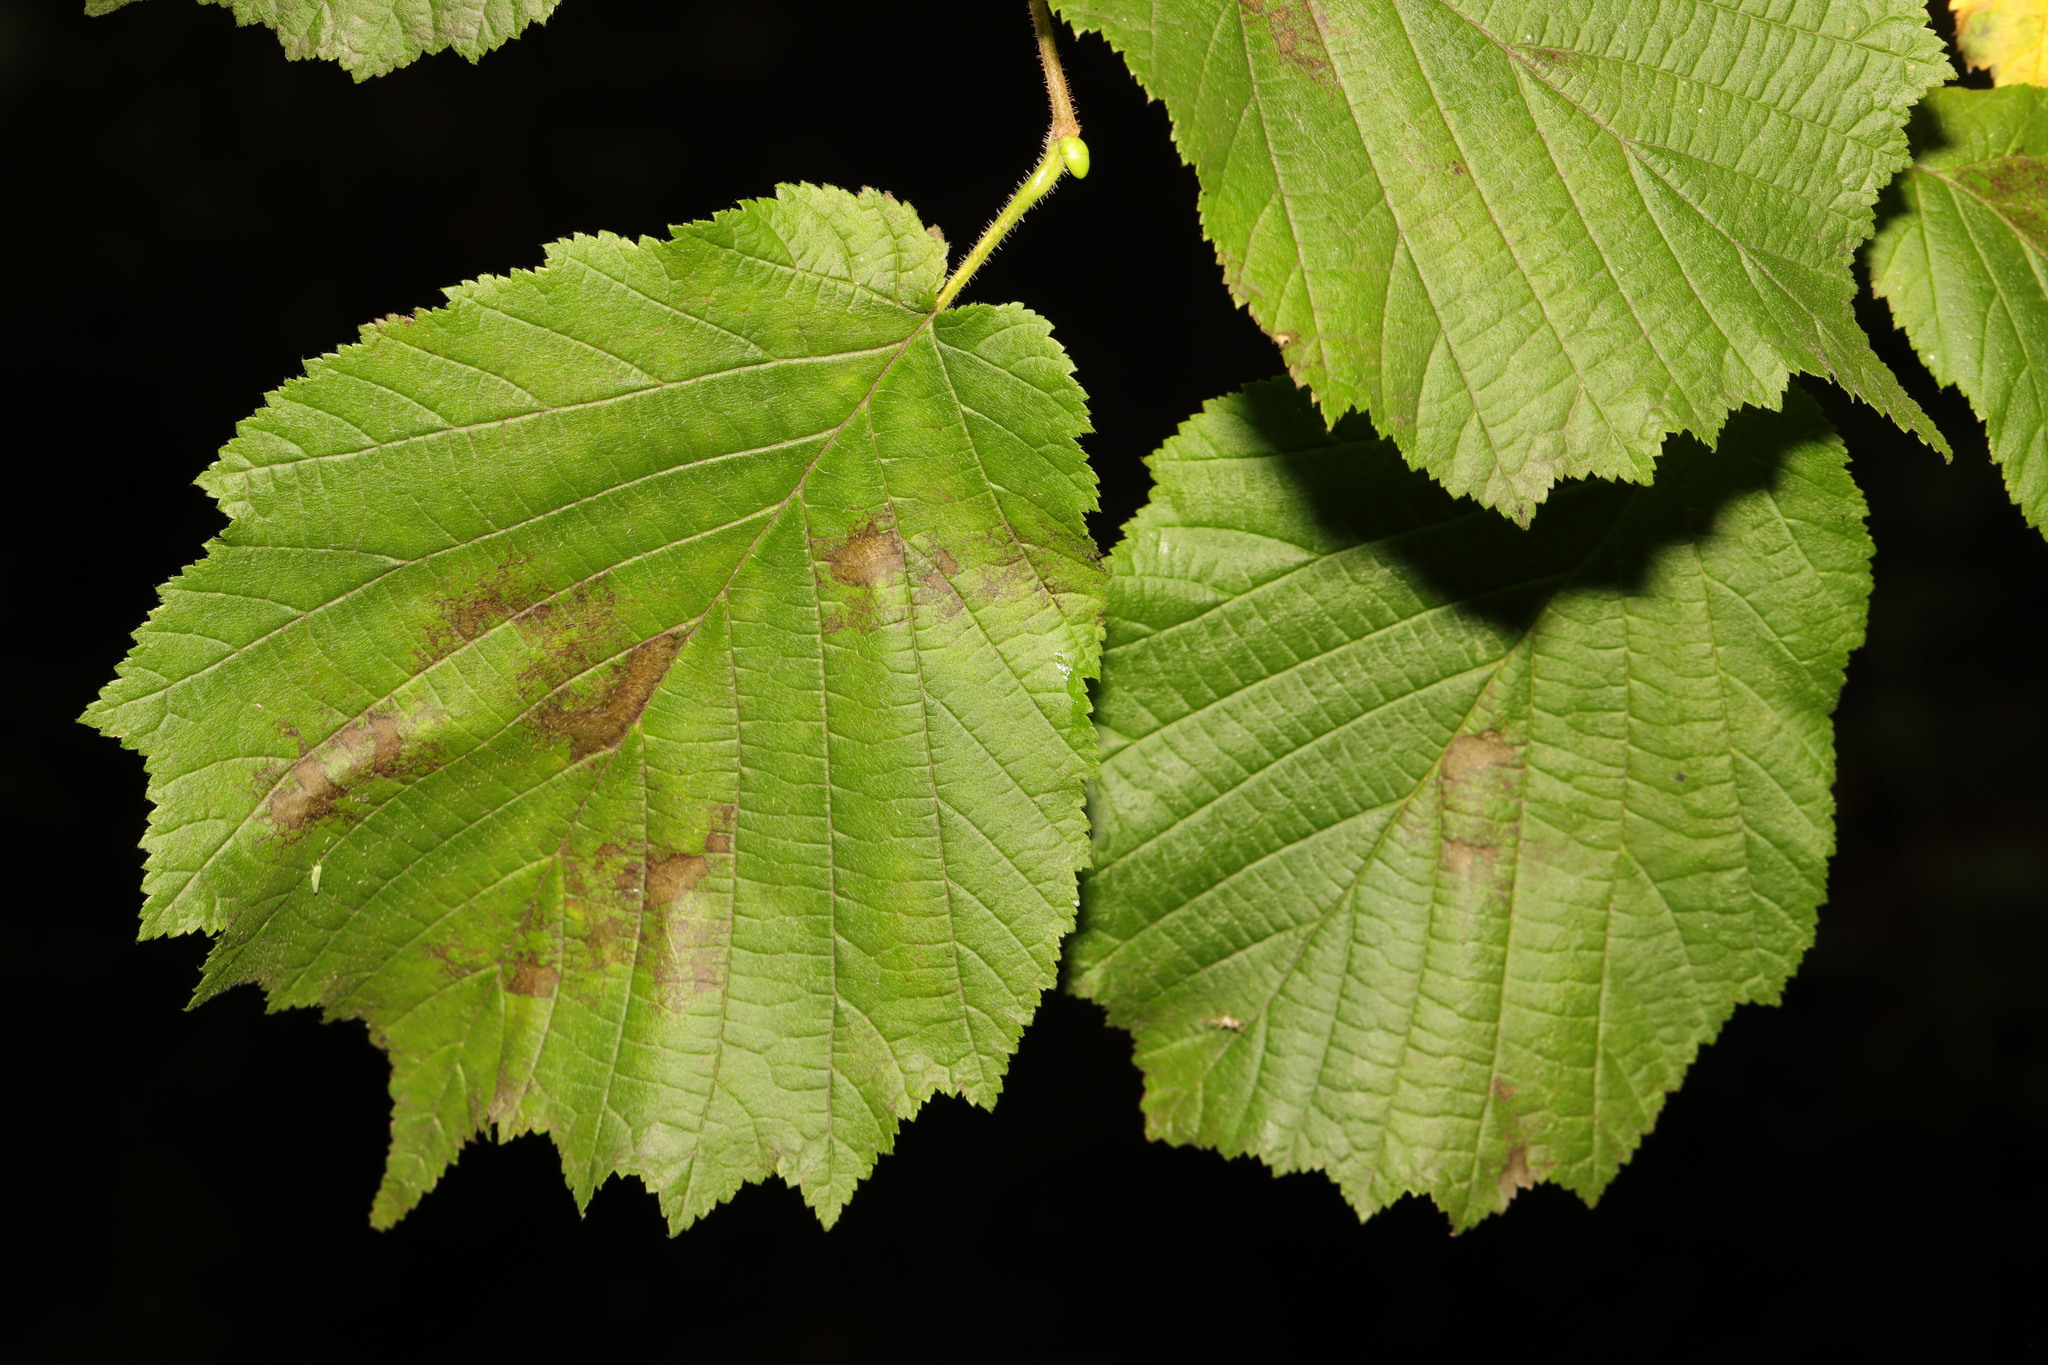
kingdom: Plantae
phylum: Tracheophyta
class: Magnoliopsida
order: Fagales
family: Betulaceae
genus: Corylus
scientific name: Corylus avellana
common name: European hazel
